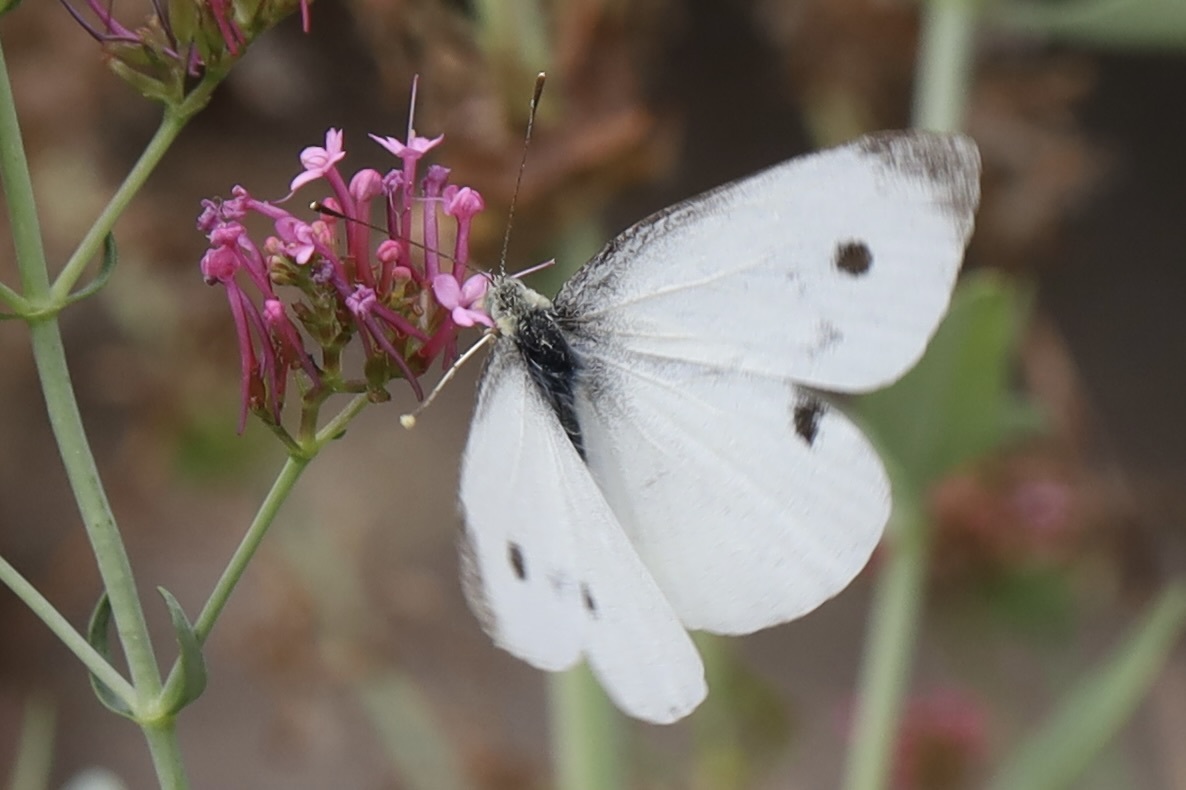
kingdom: Animalia
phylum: Arthropoda
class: Insecta
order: Lepidoptera
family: Pieridae
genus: Pieris
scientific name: Pieris rapae
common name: Small white
